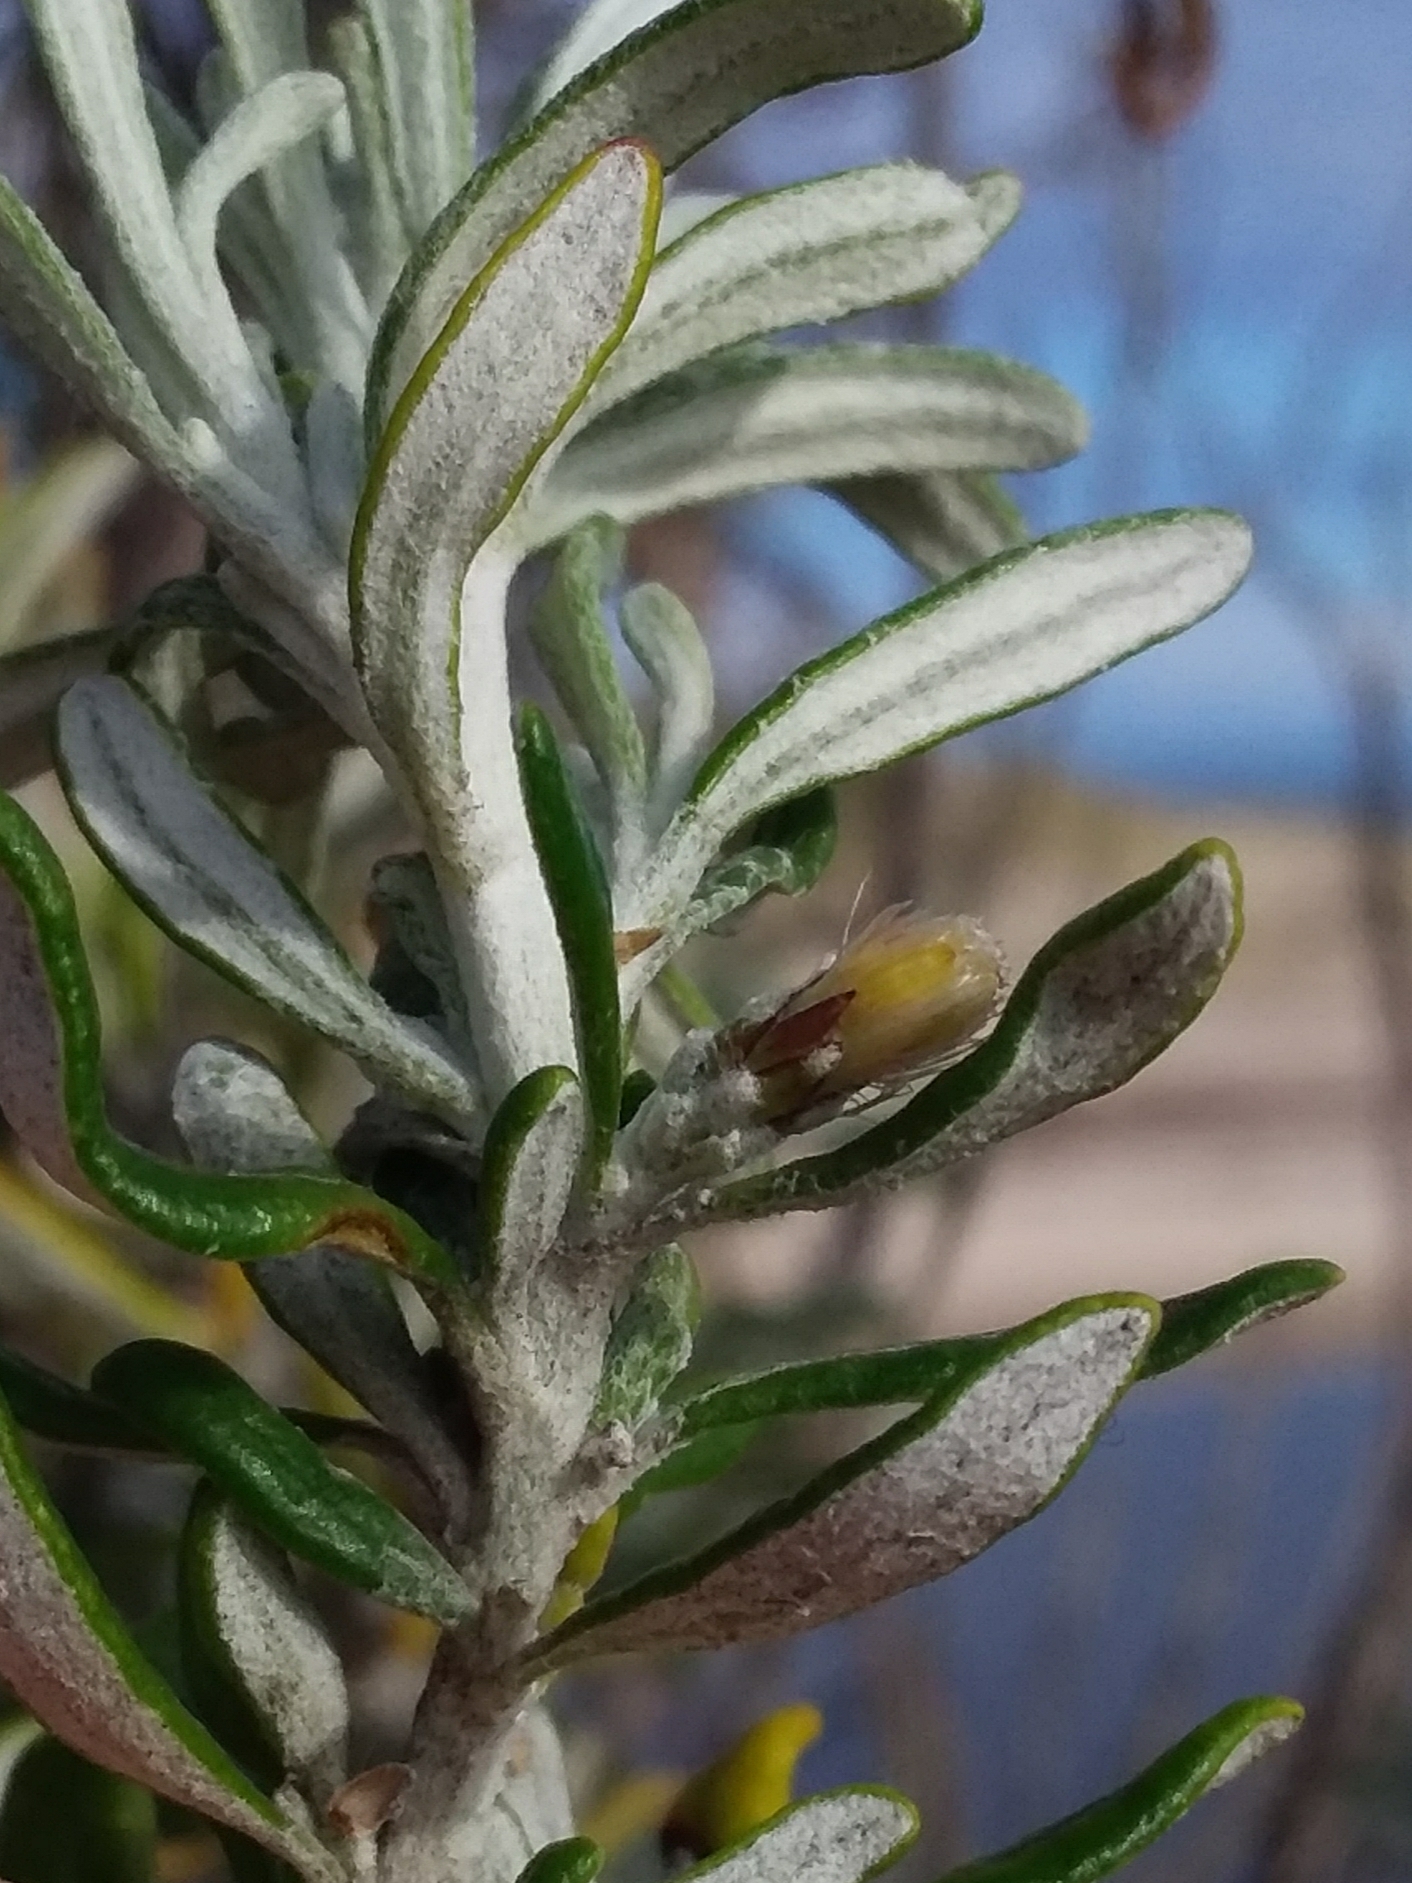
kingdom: Plantae
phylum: Tracheophyta
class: Magnoliopsida
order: Asterales
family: Asteraceae
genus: Olearia
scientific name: Olearia axillaris
